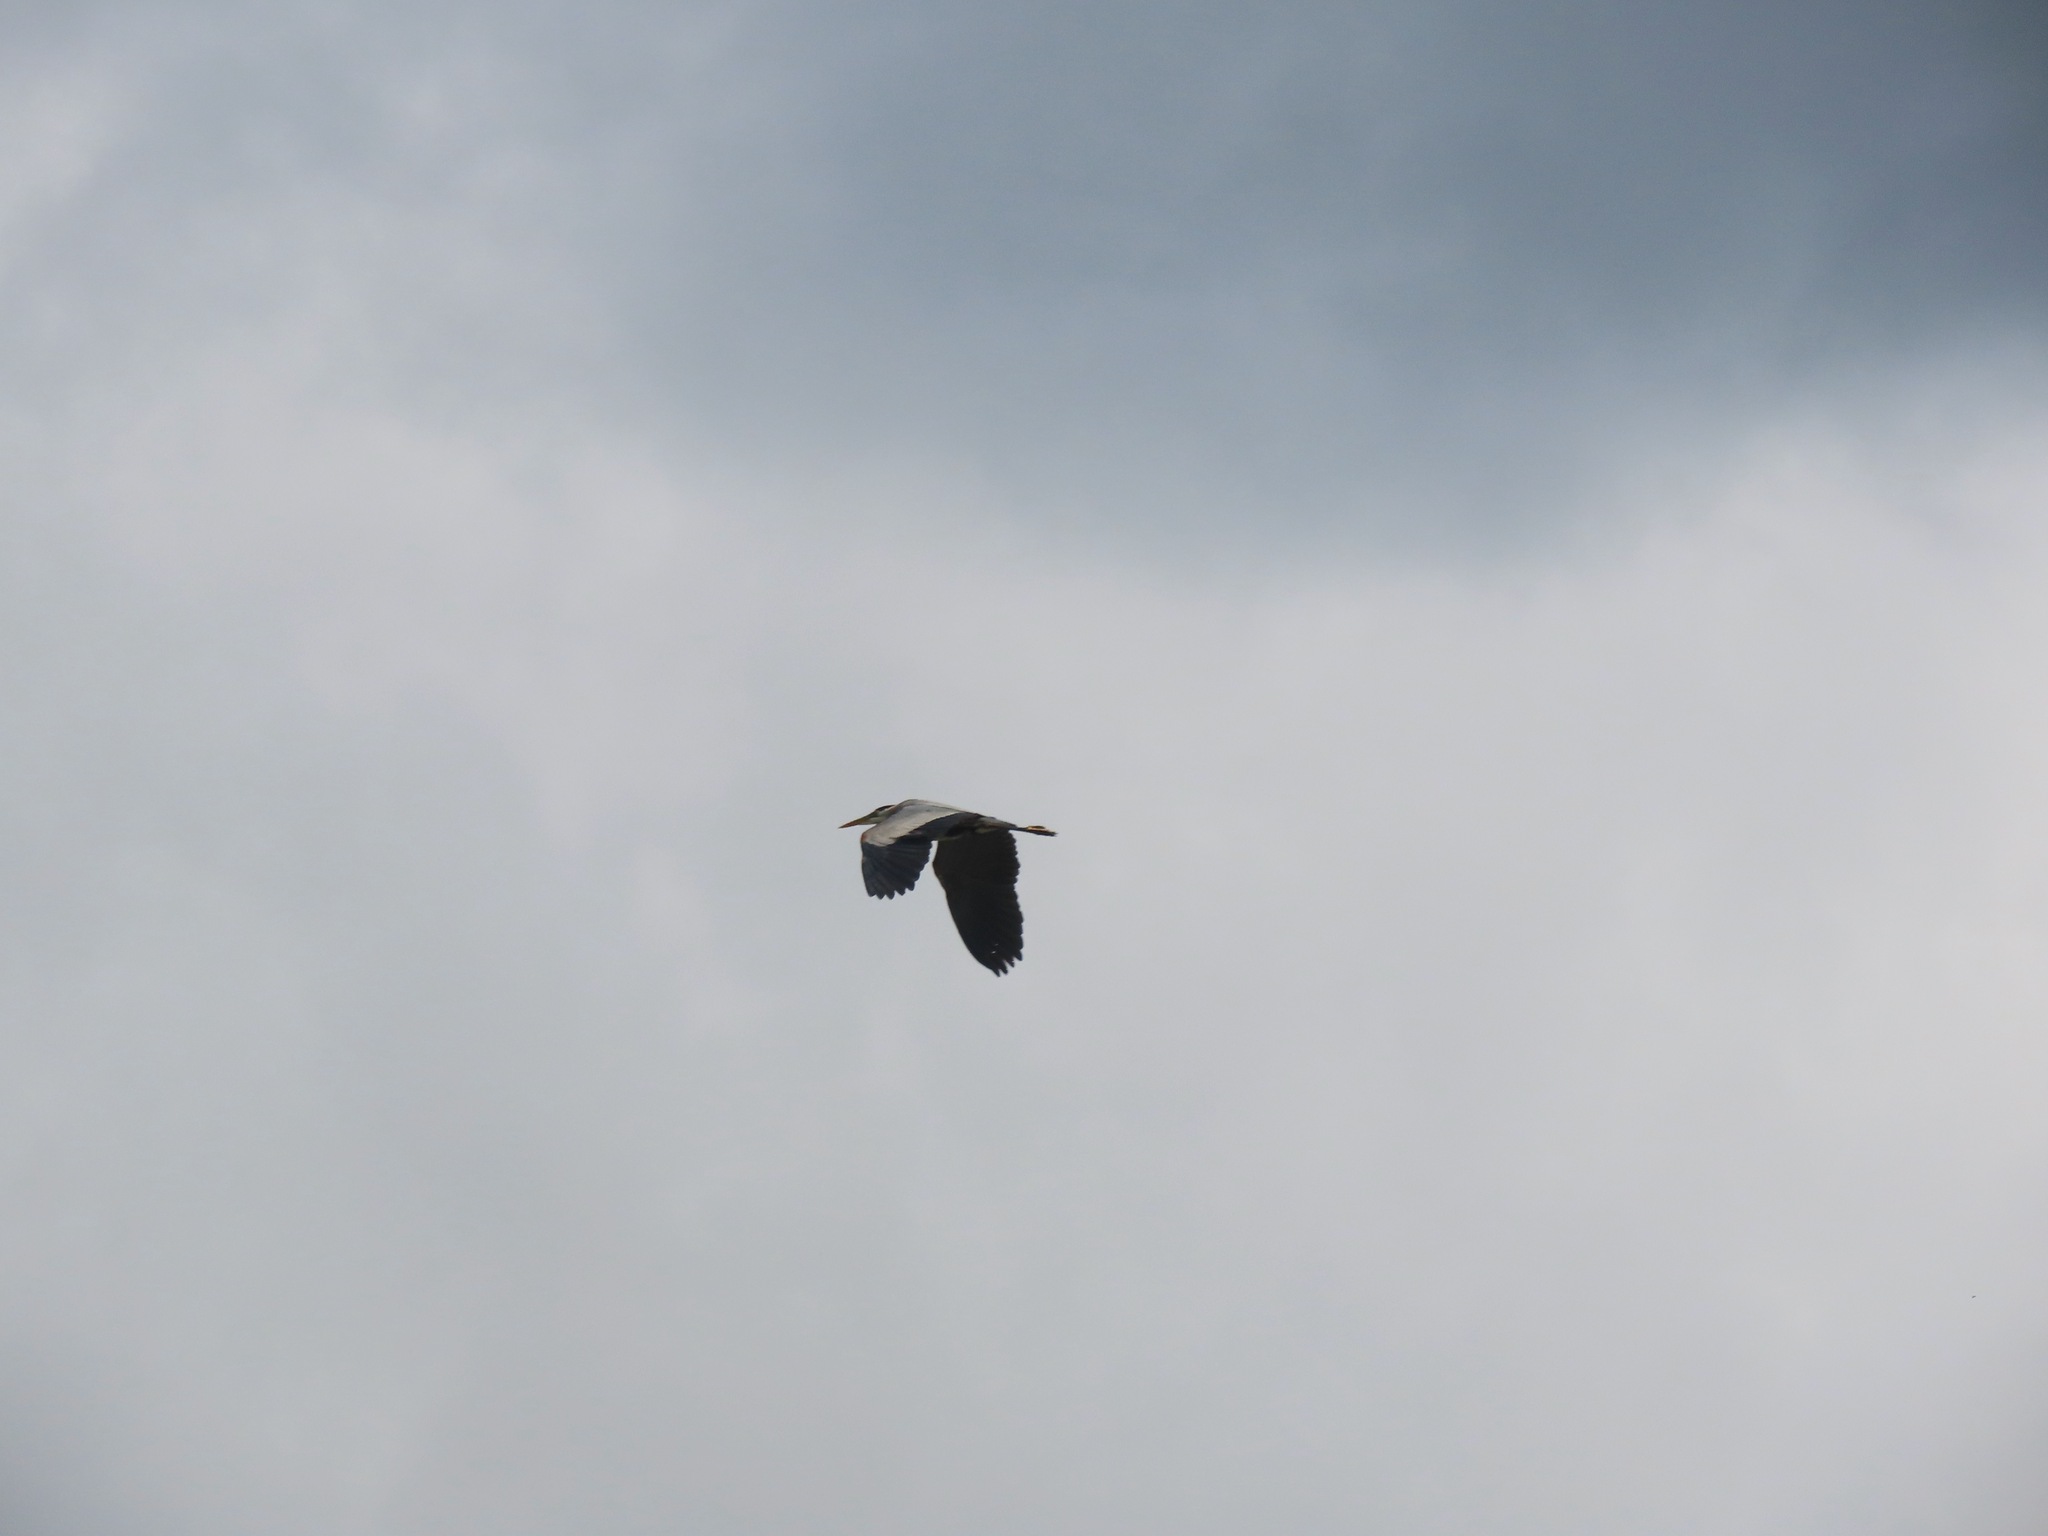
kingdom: Animalia
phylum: Chordata
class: Aves
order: Pelecaniformes
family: Ardeidae
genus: Ardea
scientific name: Ardea herodias
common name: Great blue heron
